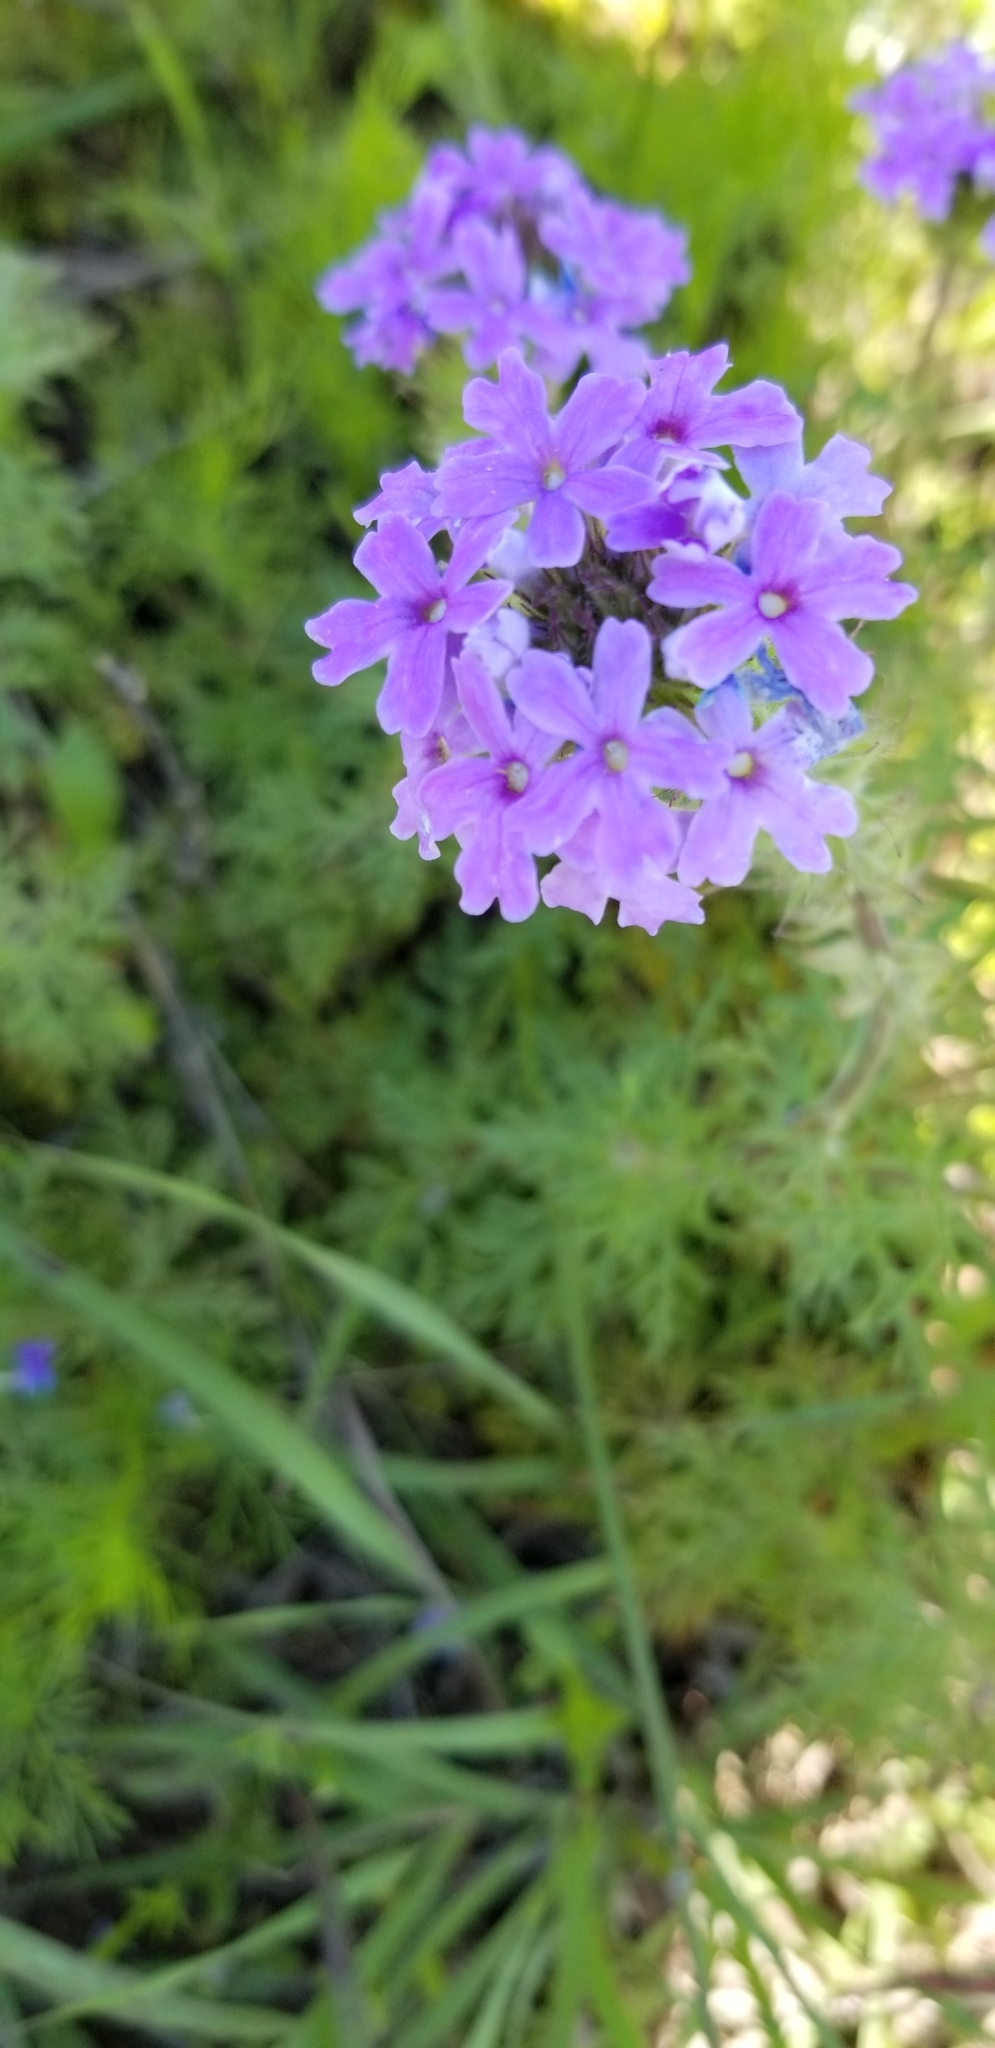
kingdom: Plantae
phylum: Tracheophyta
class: Magnoliopsida
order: Lamiales
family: Verbenaceae
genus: Verbena
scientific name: Verbena bipinnatifida
